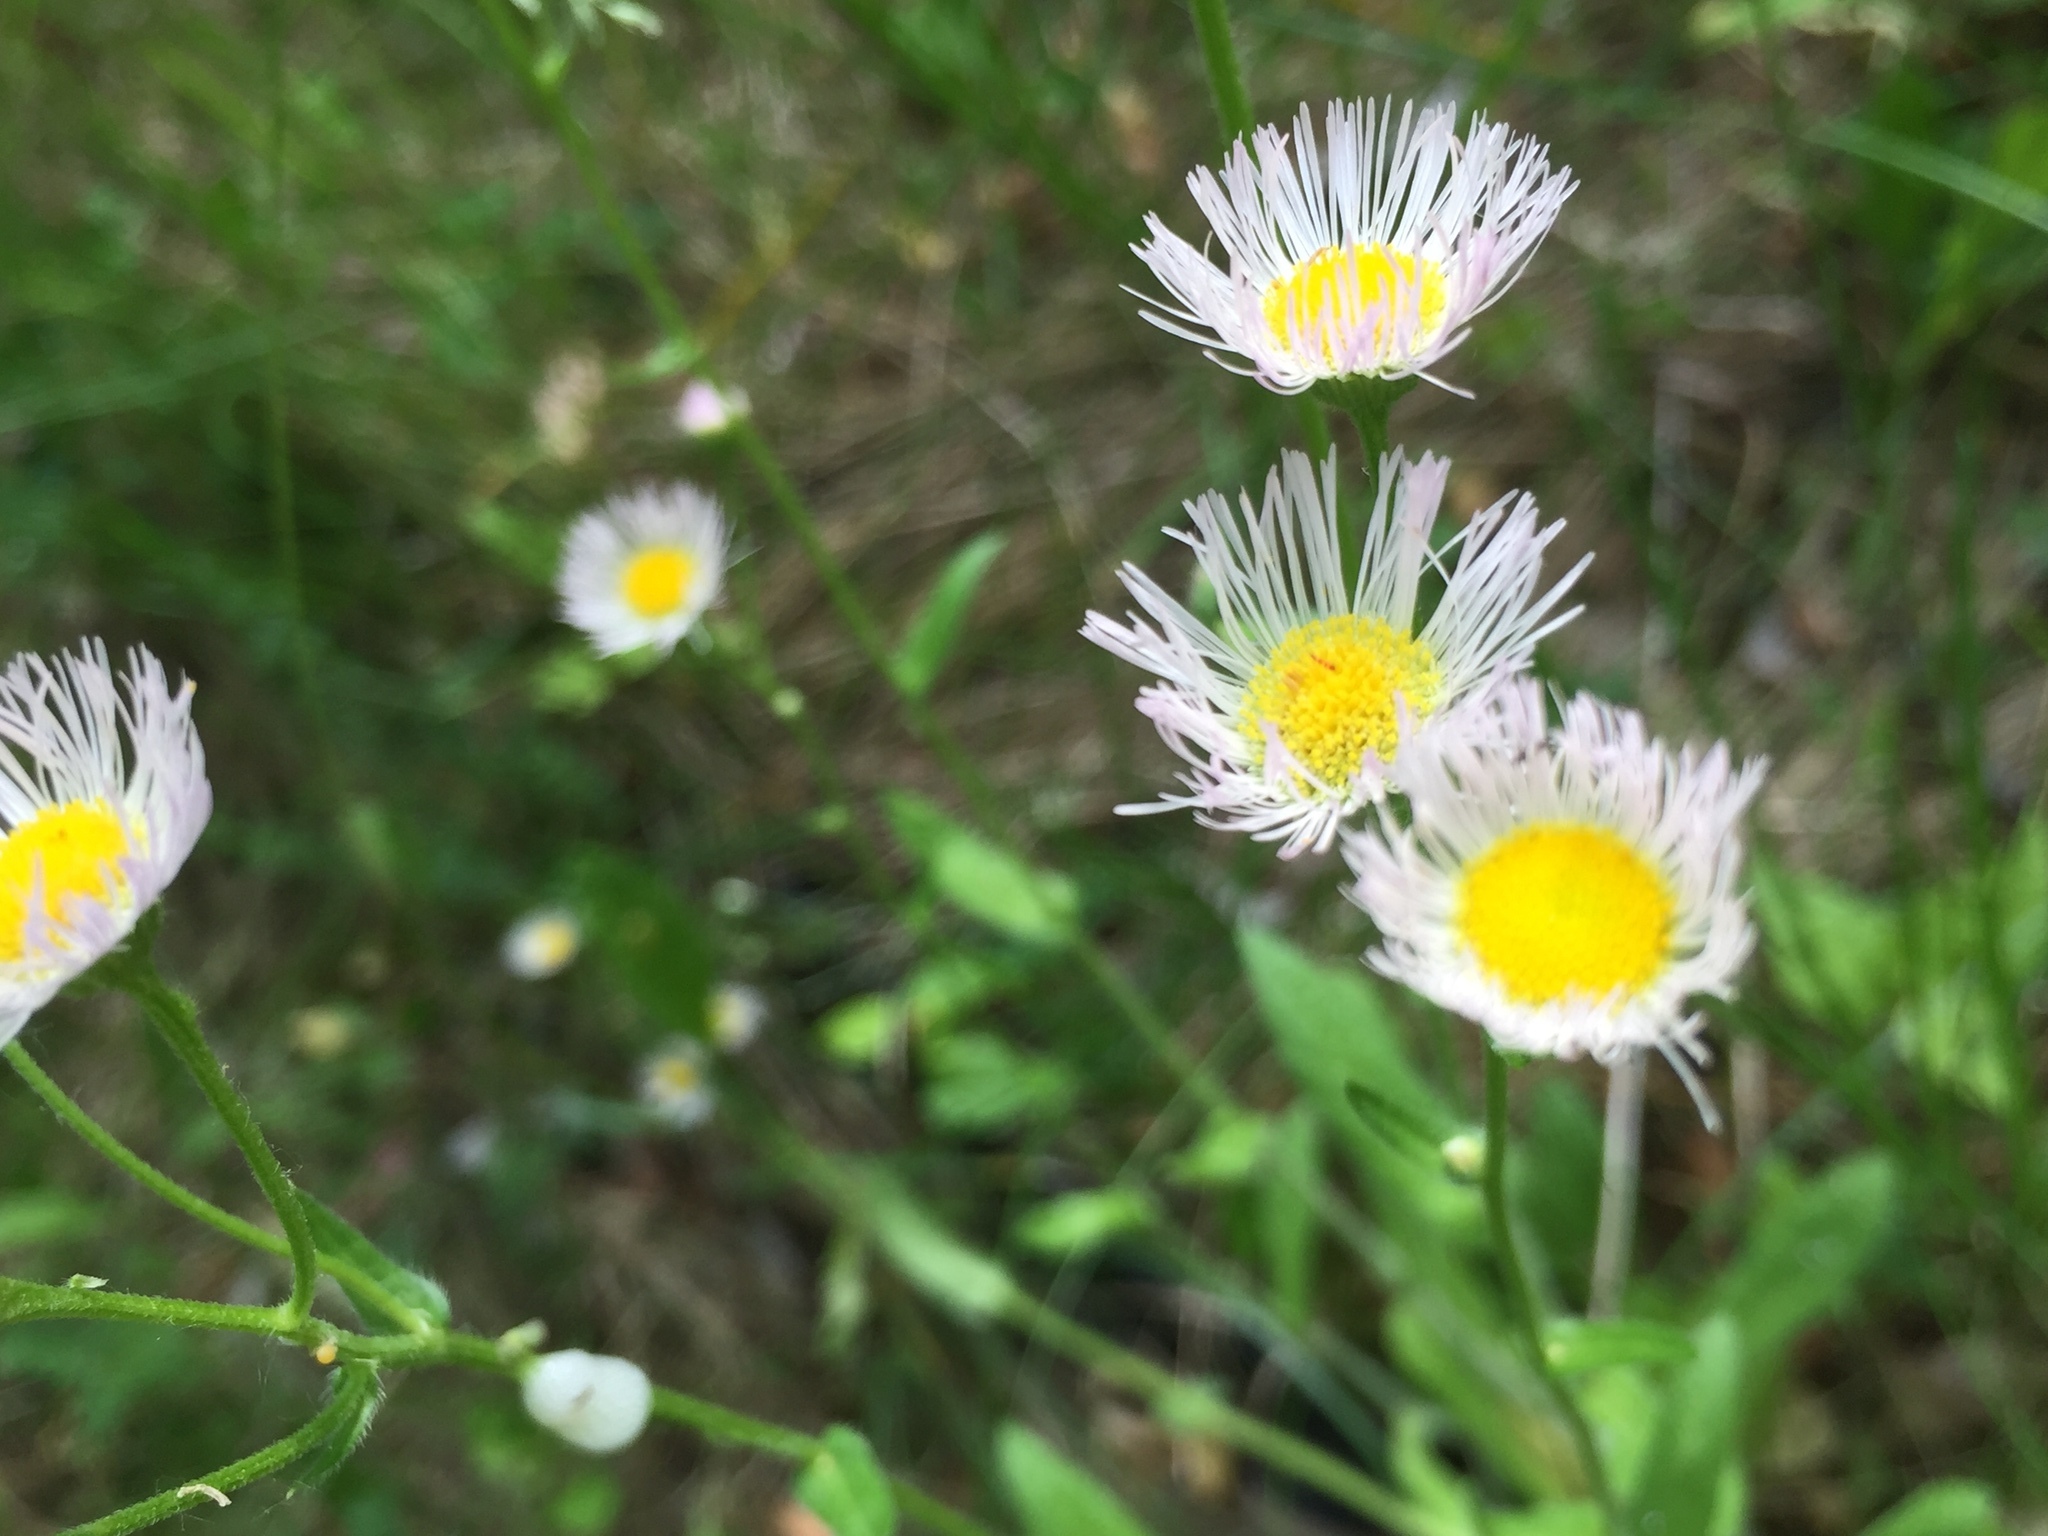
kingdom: Plantae
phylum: Tracheophyta
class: Magnoliopsida
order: Asterales
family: Asteraceae
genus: Erigeron
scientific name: Erigeron philadelphicus
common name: Robin's-plantain
